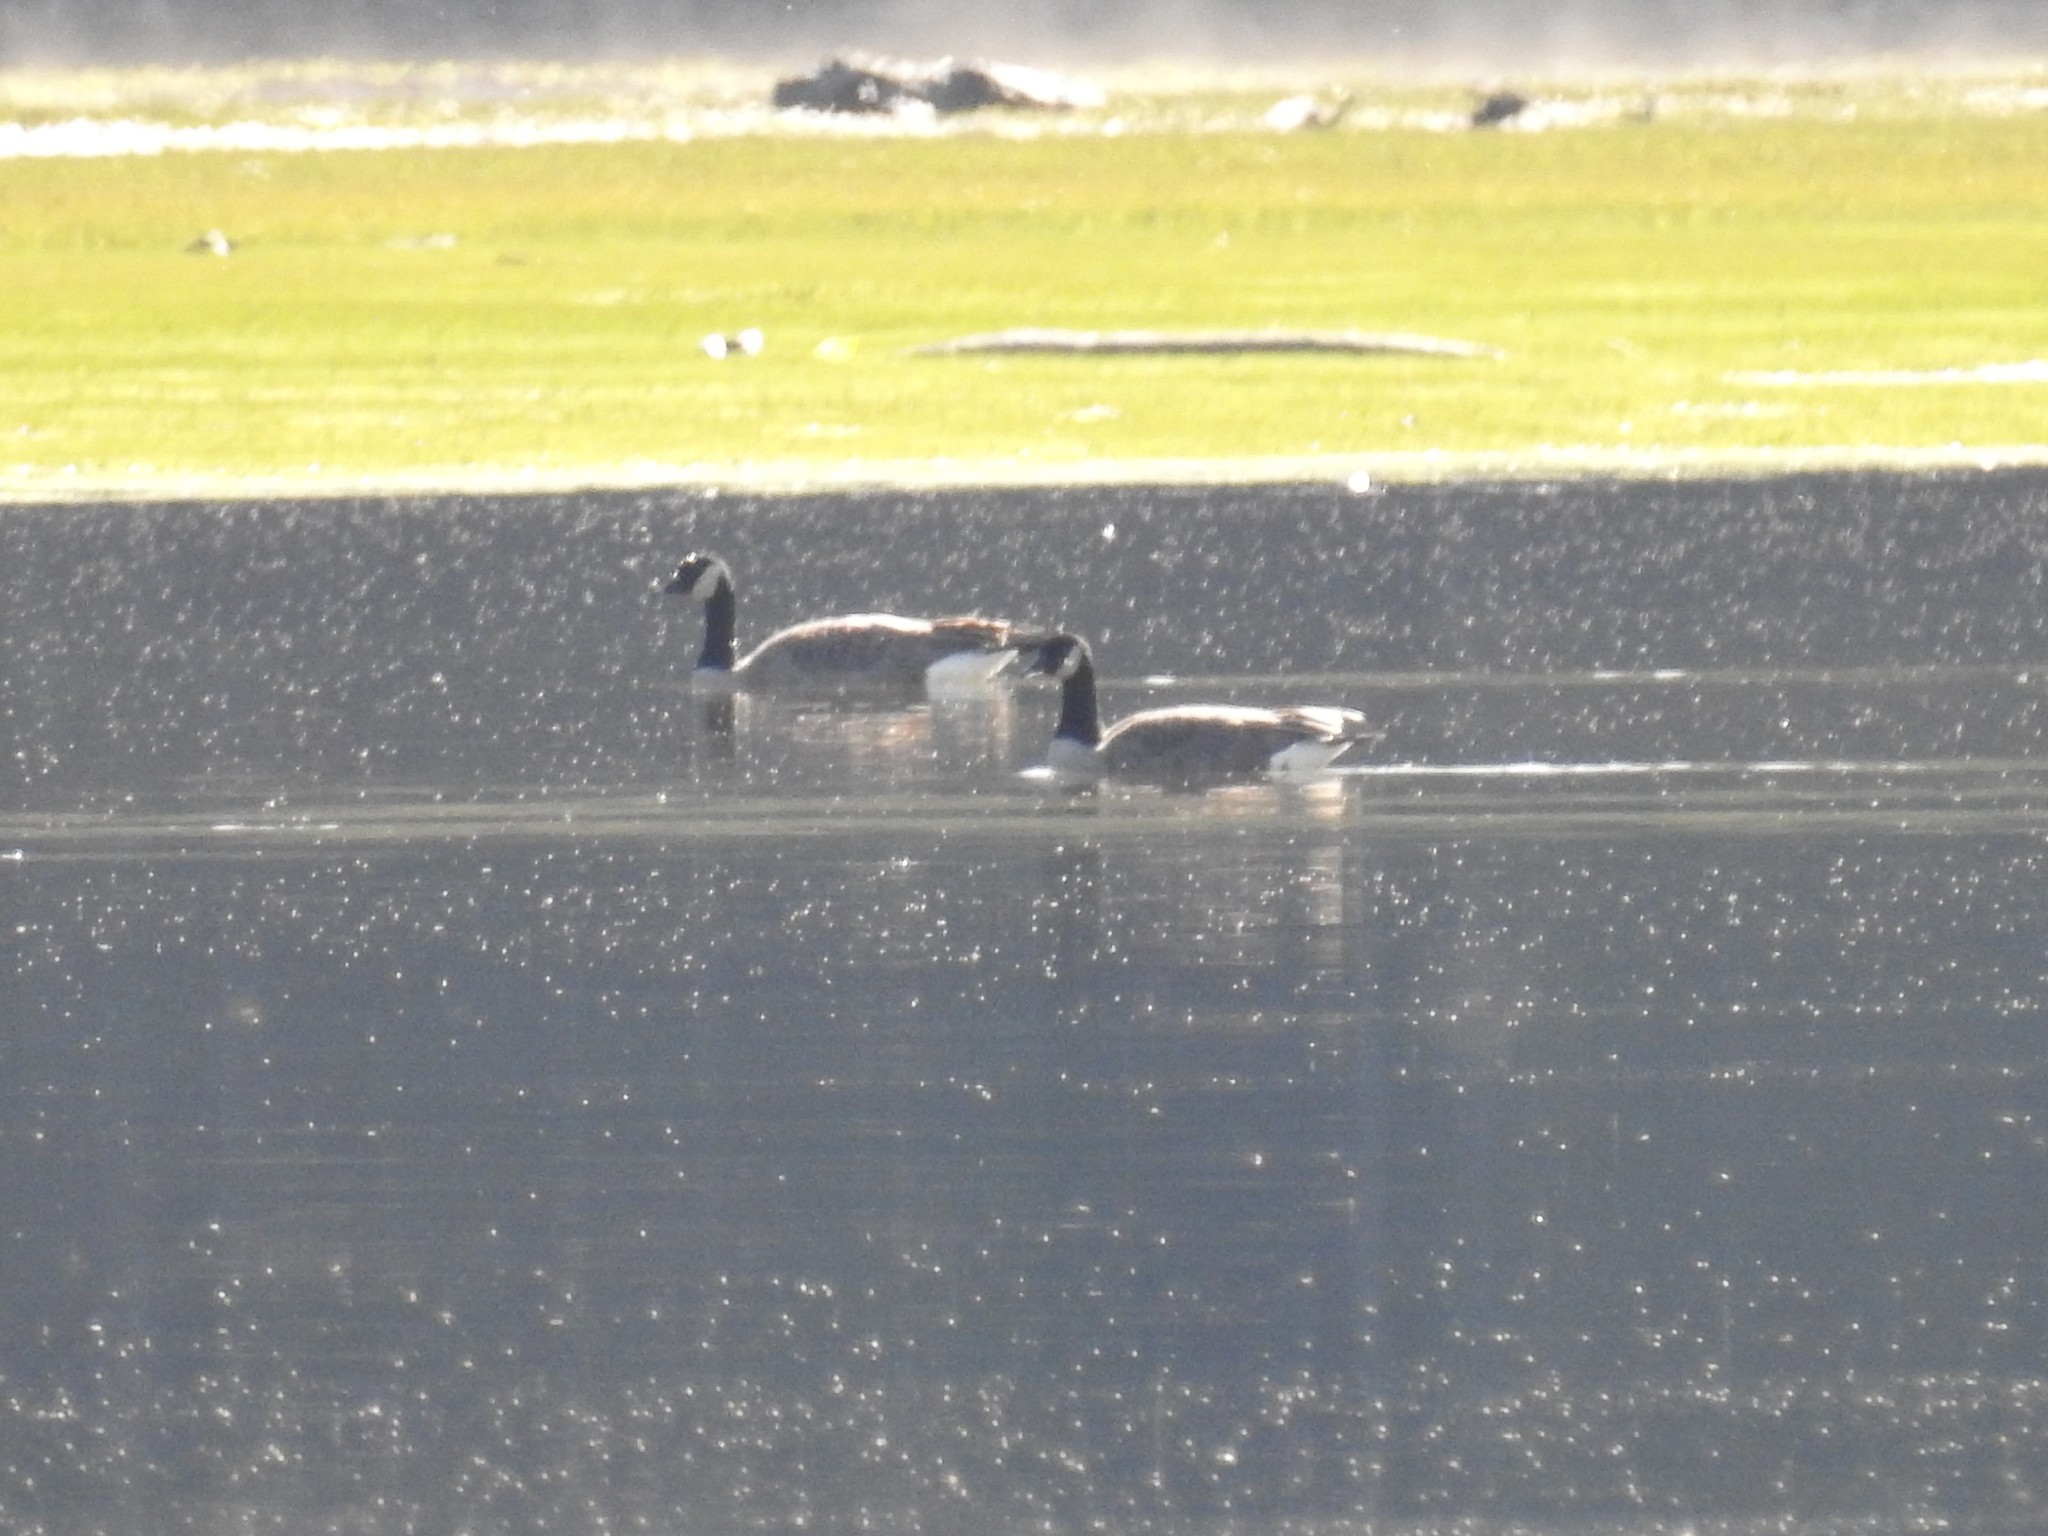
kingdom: Animalia
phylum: Chordata
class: Aves
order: Anseriformes
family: Anatidae
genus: Branta
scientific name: Branta canadensis
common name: Canada goose
